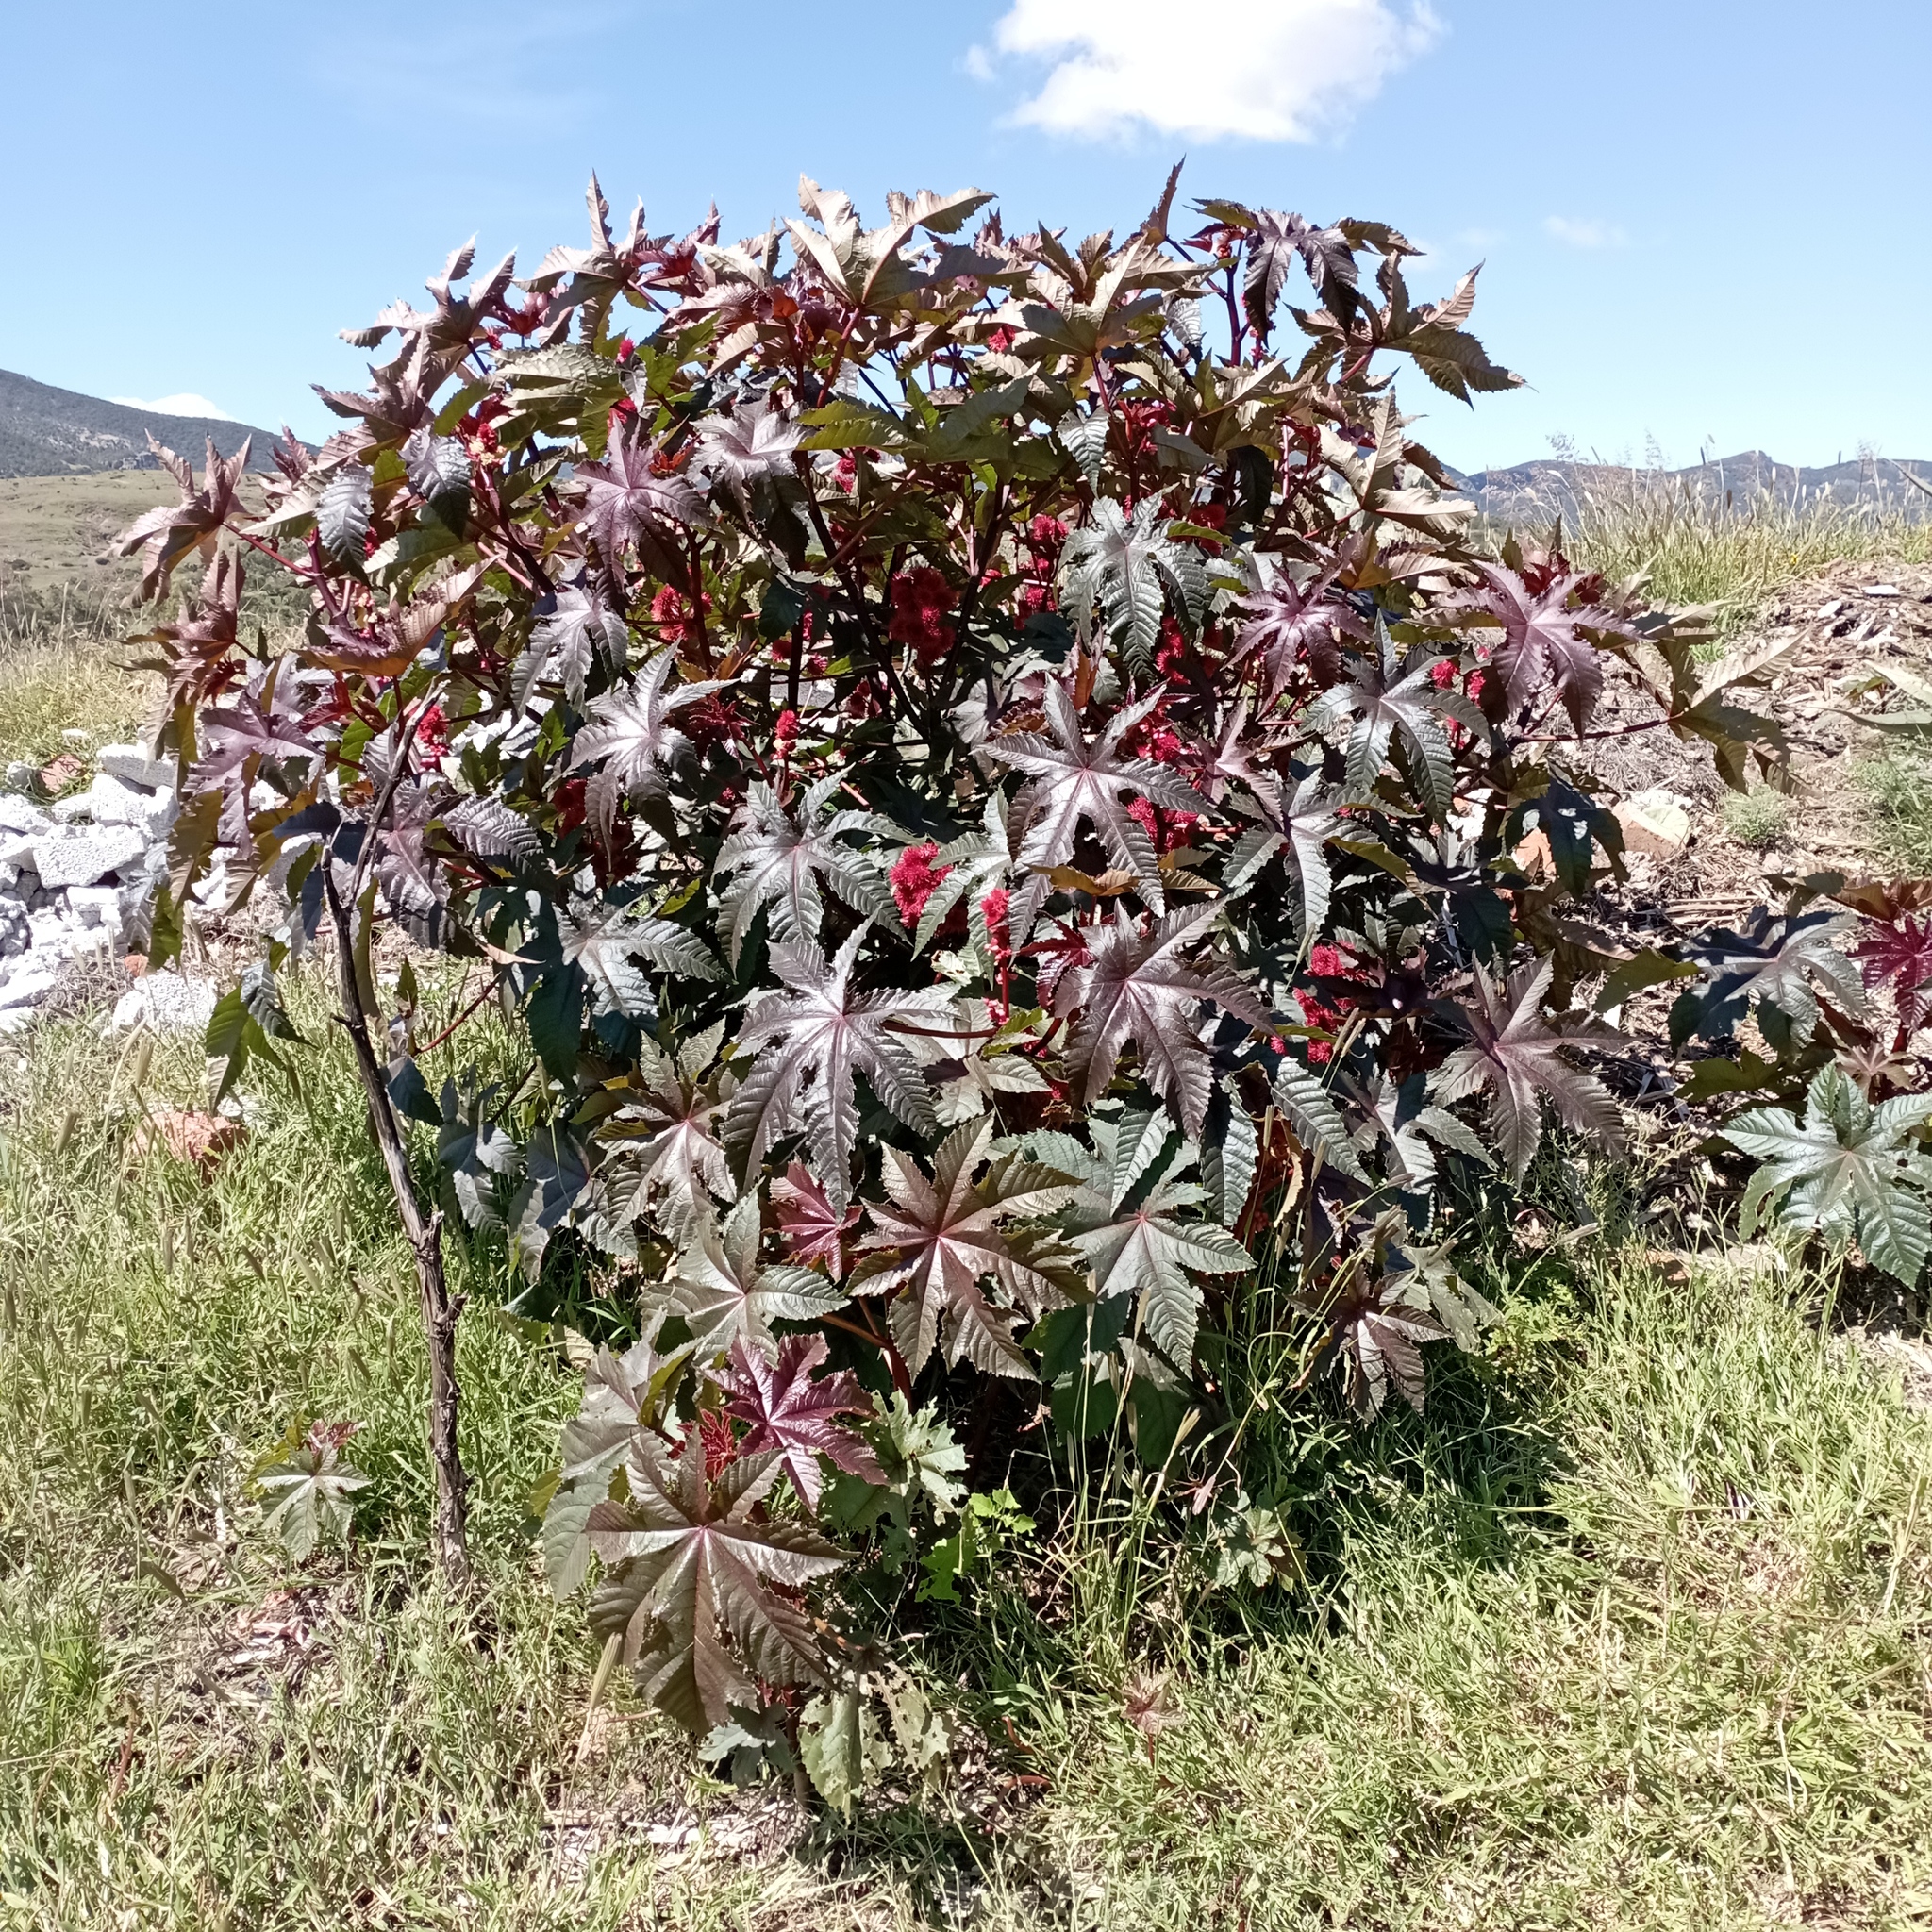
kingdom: Plantae
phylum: Tracheophyta
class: Magnoliopsida
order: Malpighiales
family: Euphorbiaceae
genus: Ricinus
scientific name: Ricinus communis
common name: Castor-oil-plant
